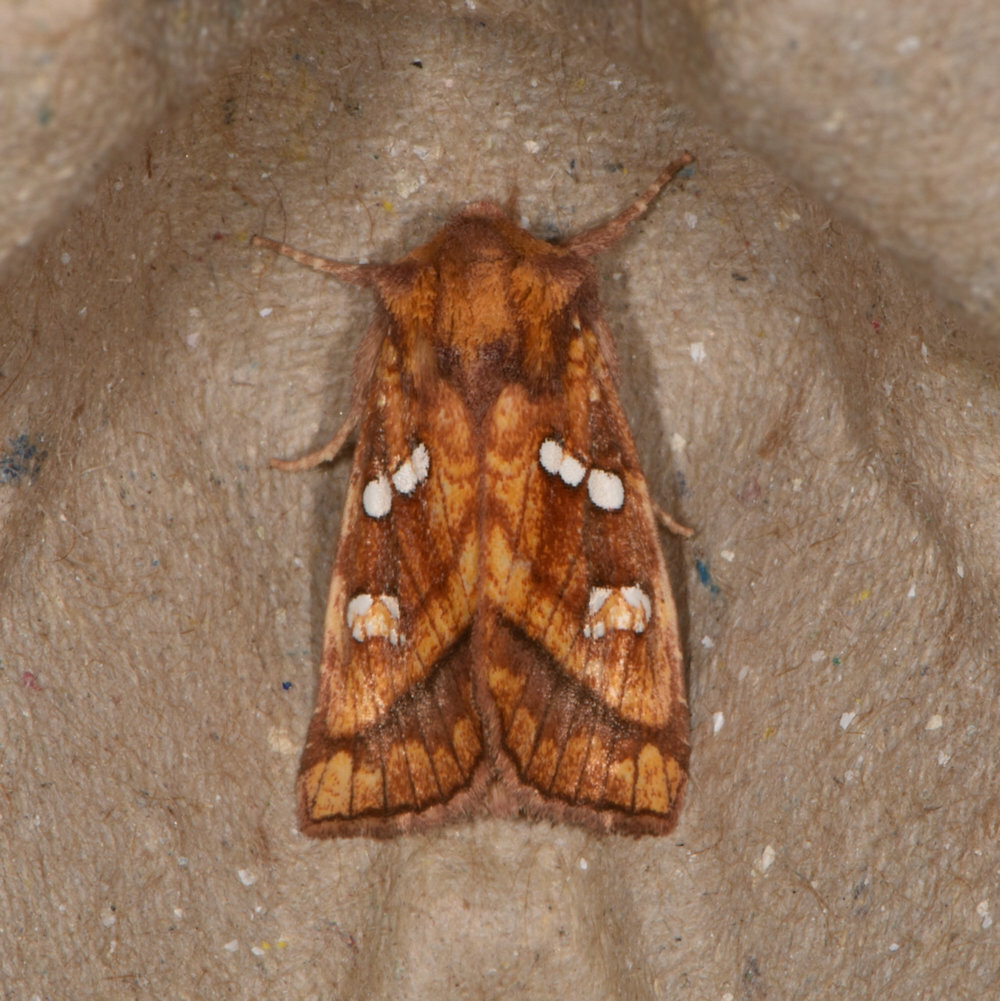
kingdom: Animalia
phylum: Arthropoda
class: Insecta
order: Lepidoptera
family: Noctuidae
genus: Papaipema
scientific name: Papaipema pterisii
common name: Bracken borer moth
